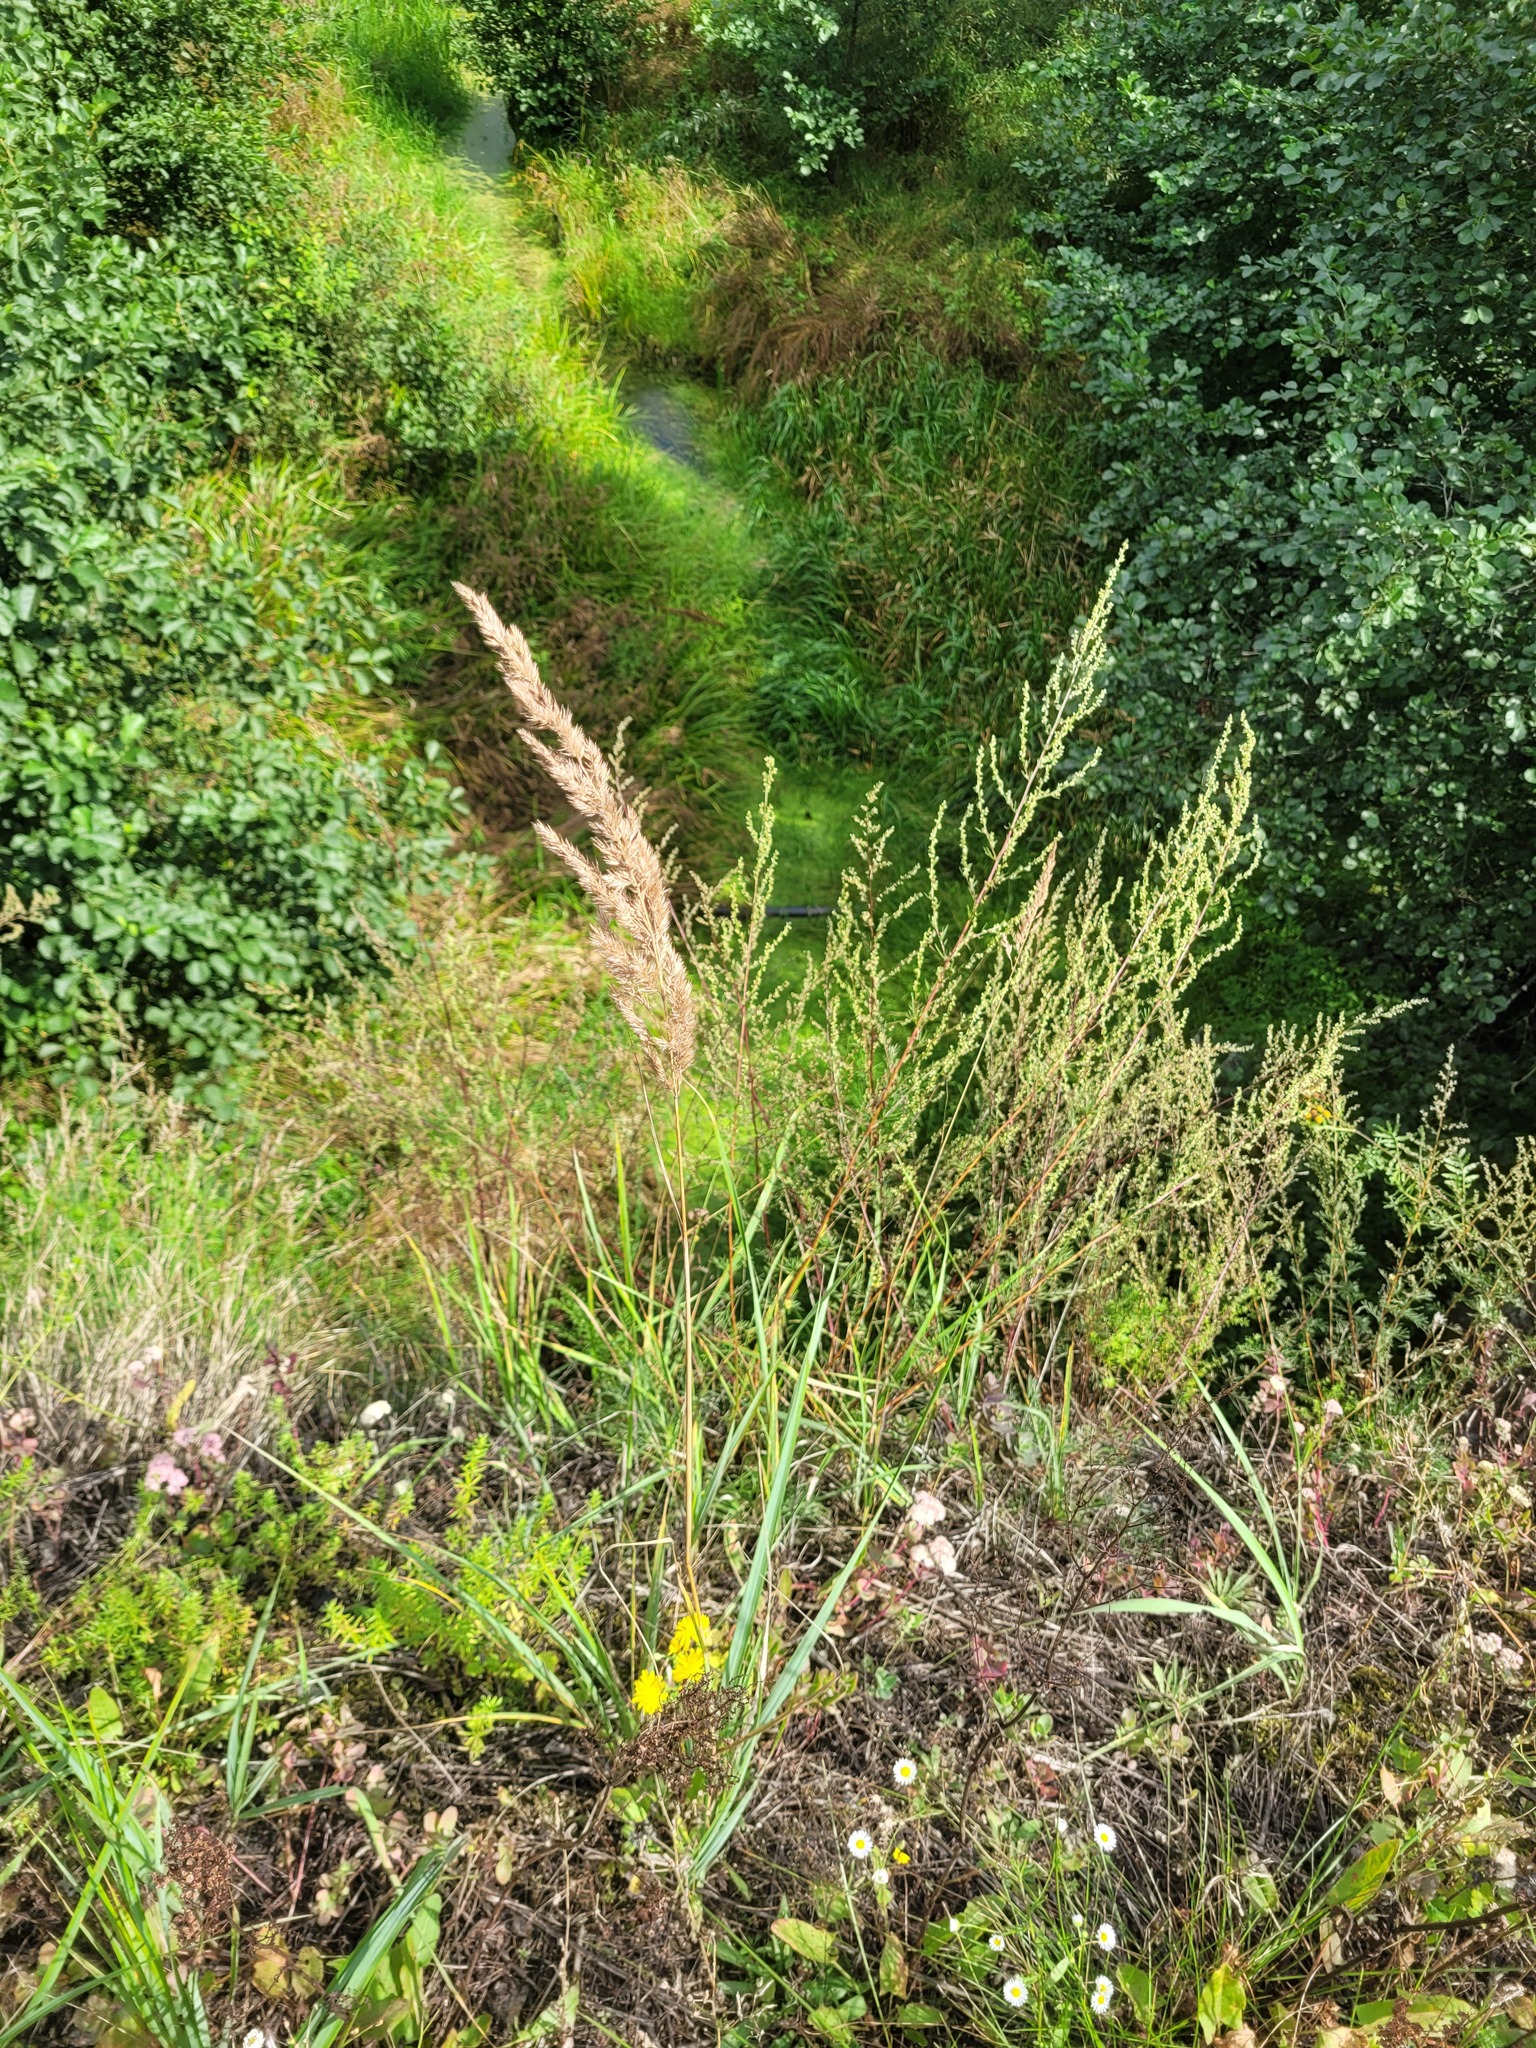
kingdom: Plantae
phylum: Tracheophyta
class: Liliopsida
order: Poales
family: Poaceae
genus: Calamagrostis
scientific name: Calamagrostis epigejos
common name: Wood small-reed
